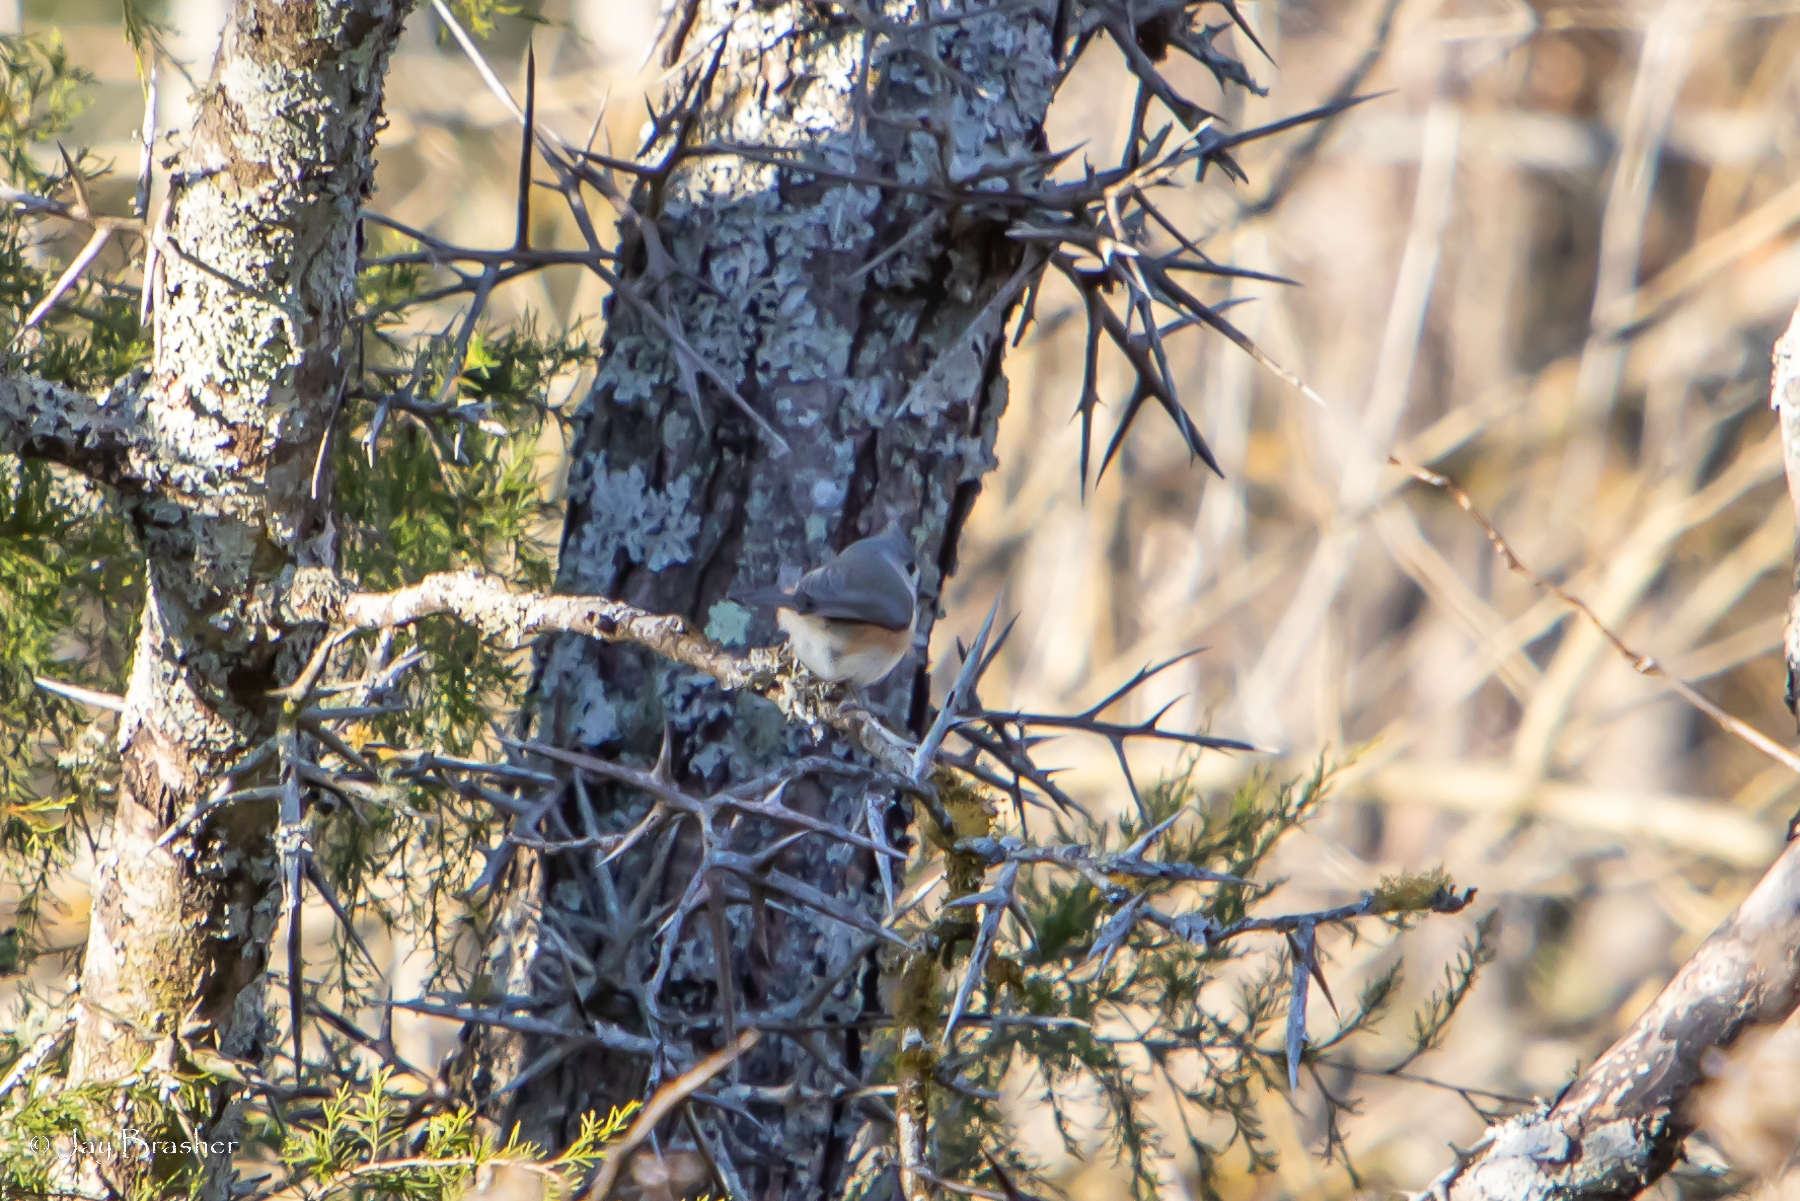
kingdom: Animalia
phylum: Chordata
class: Aves
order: Passeriformes
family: Paridae
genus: Baeolophus
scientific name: Baeolophus bicolor
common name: Tufted titmouse
